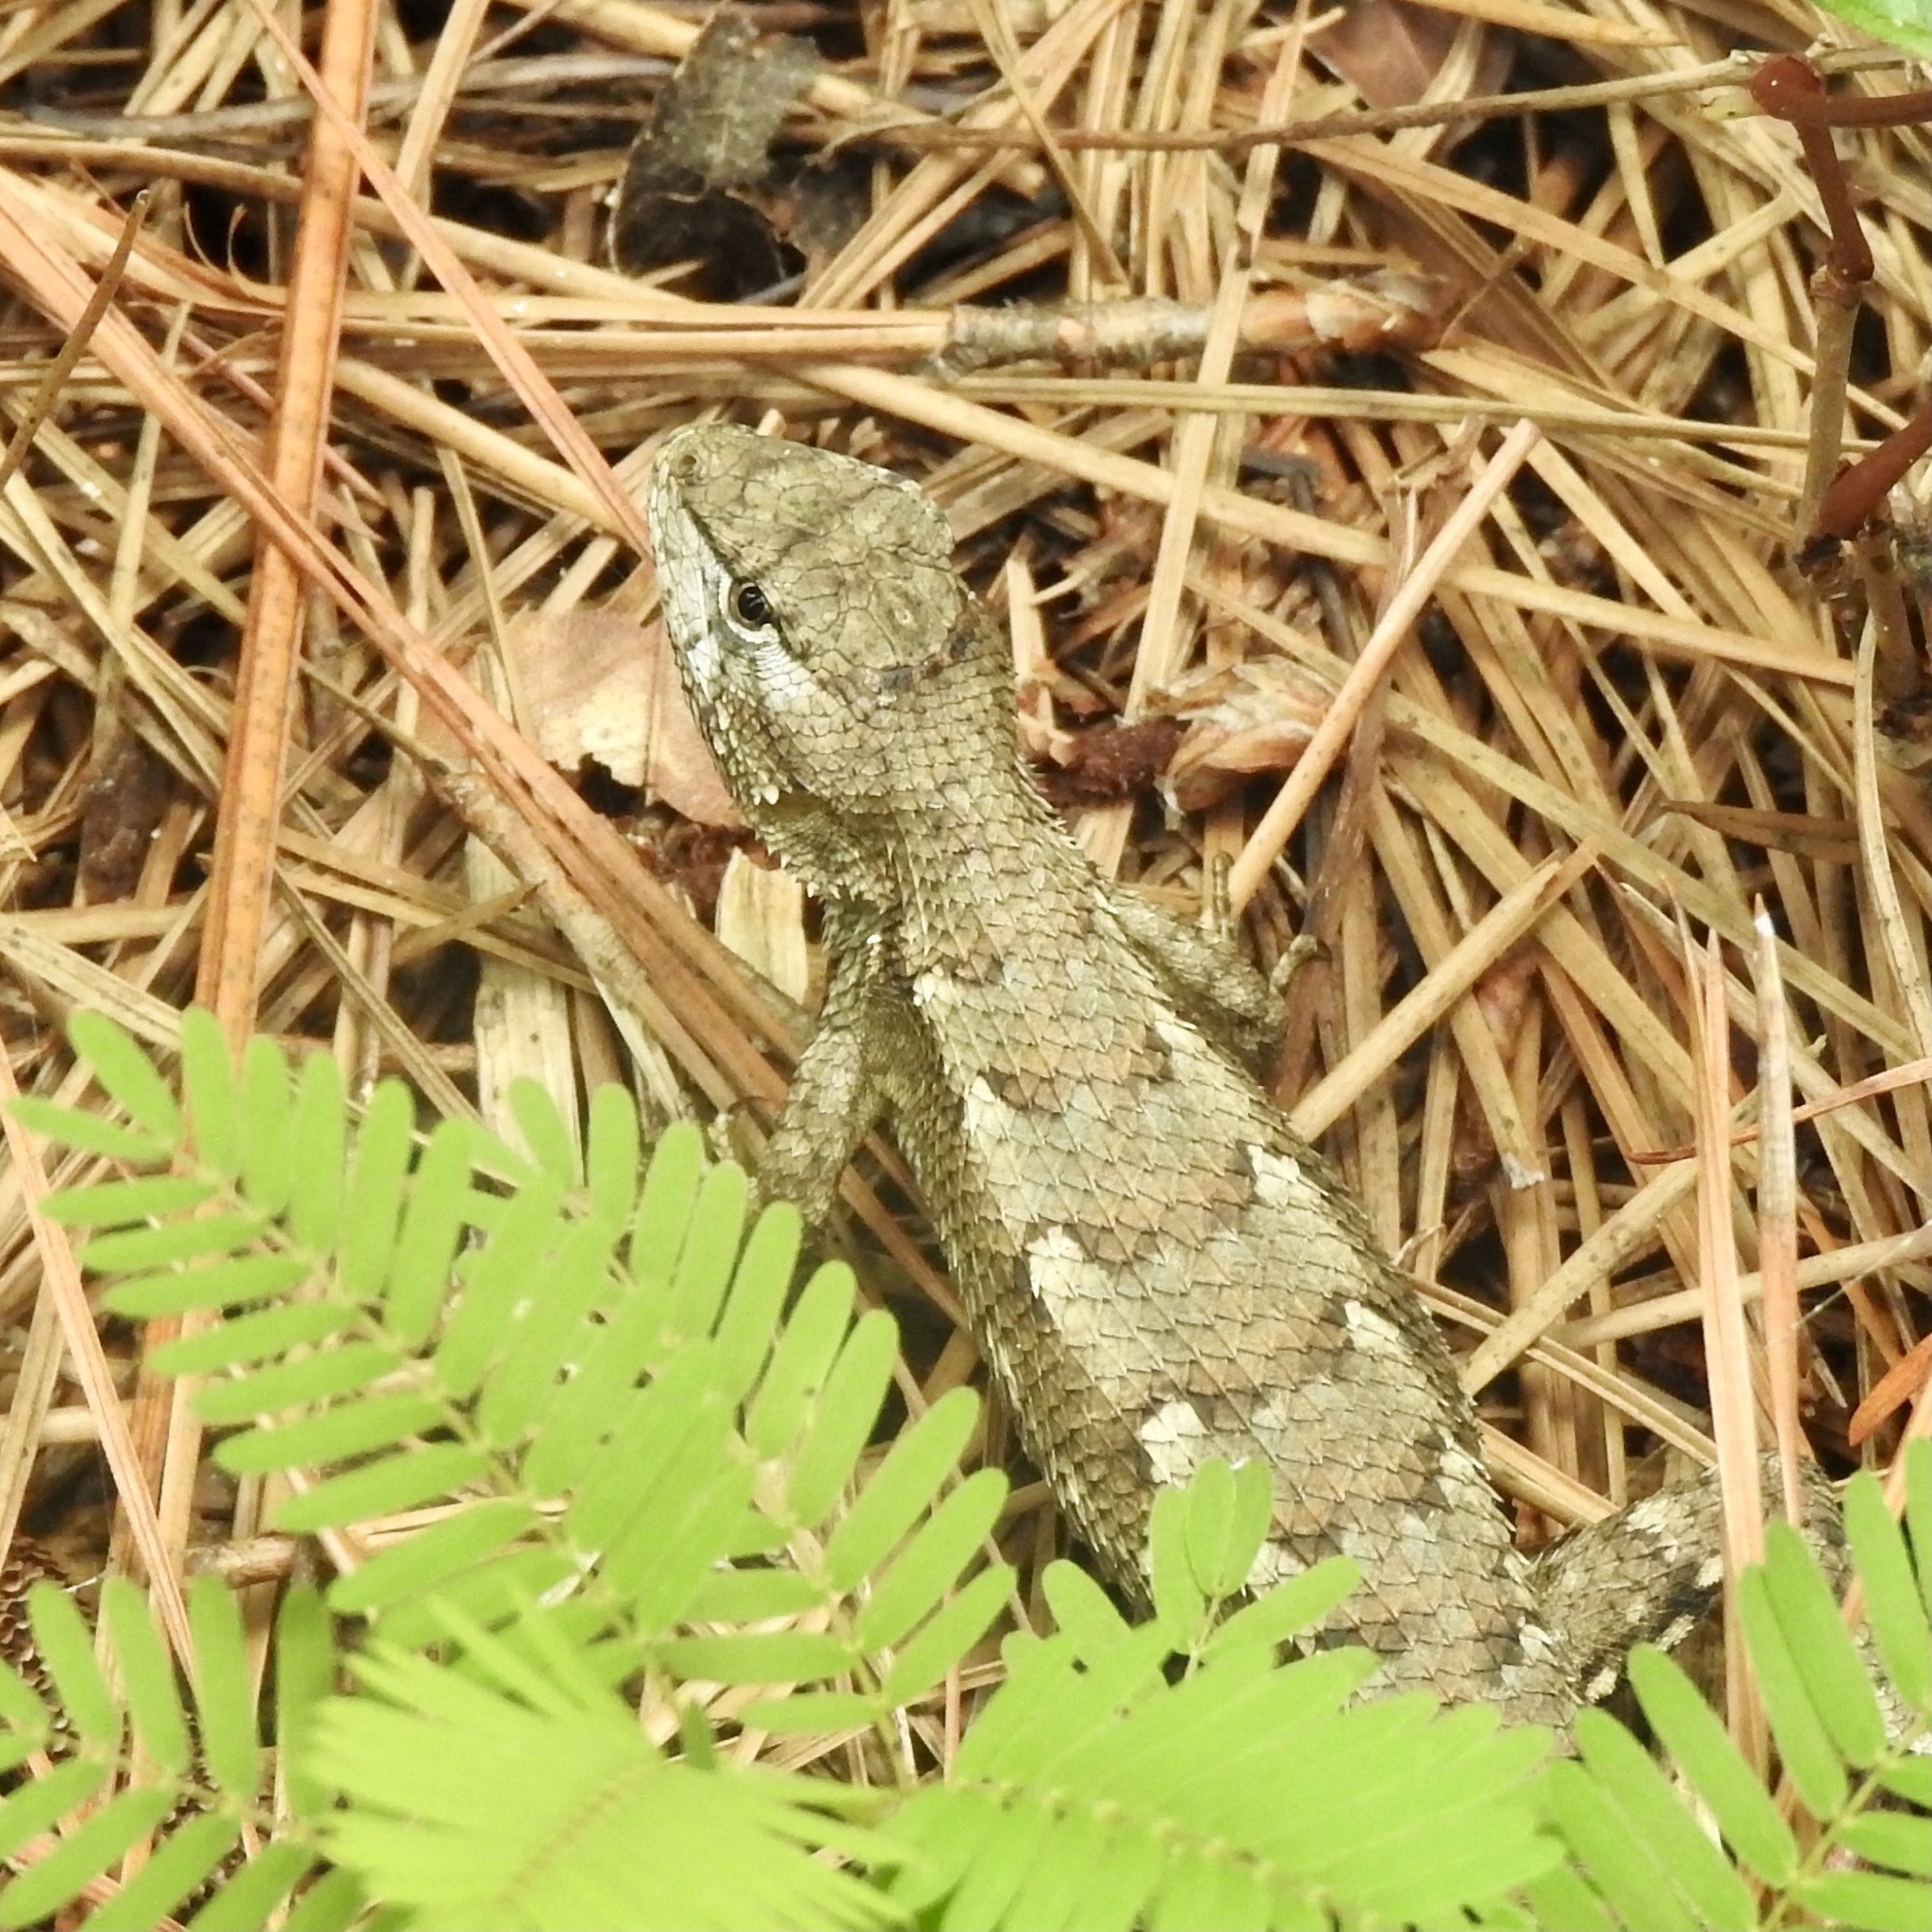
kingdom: Animalia
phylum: Chordata
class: Squamata
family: Phrynosomatidae
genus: Sceloporus
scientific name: Sceloporus consobrinus
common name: Southern prairie lizard
